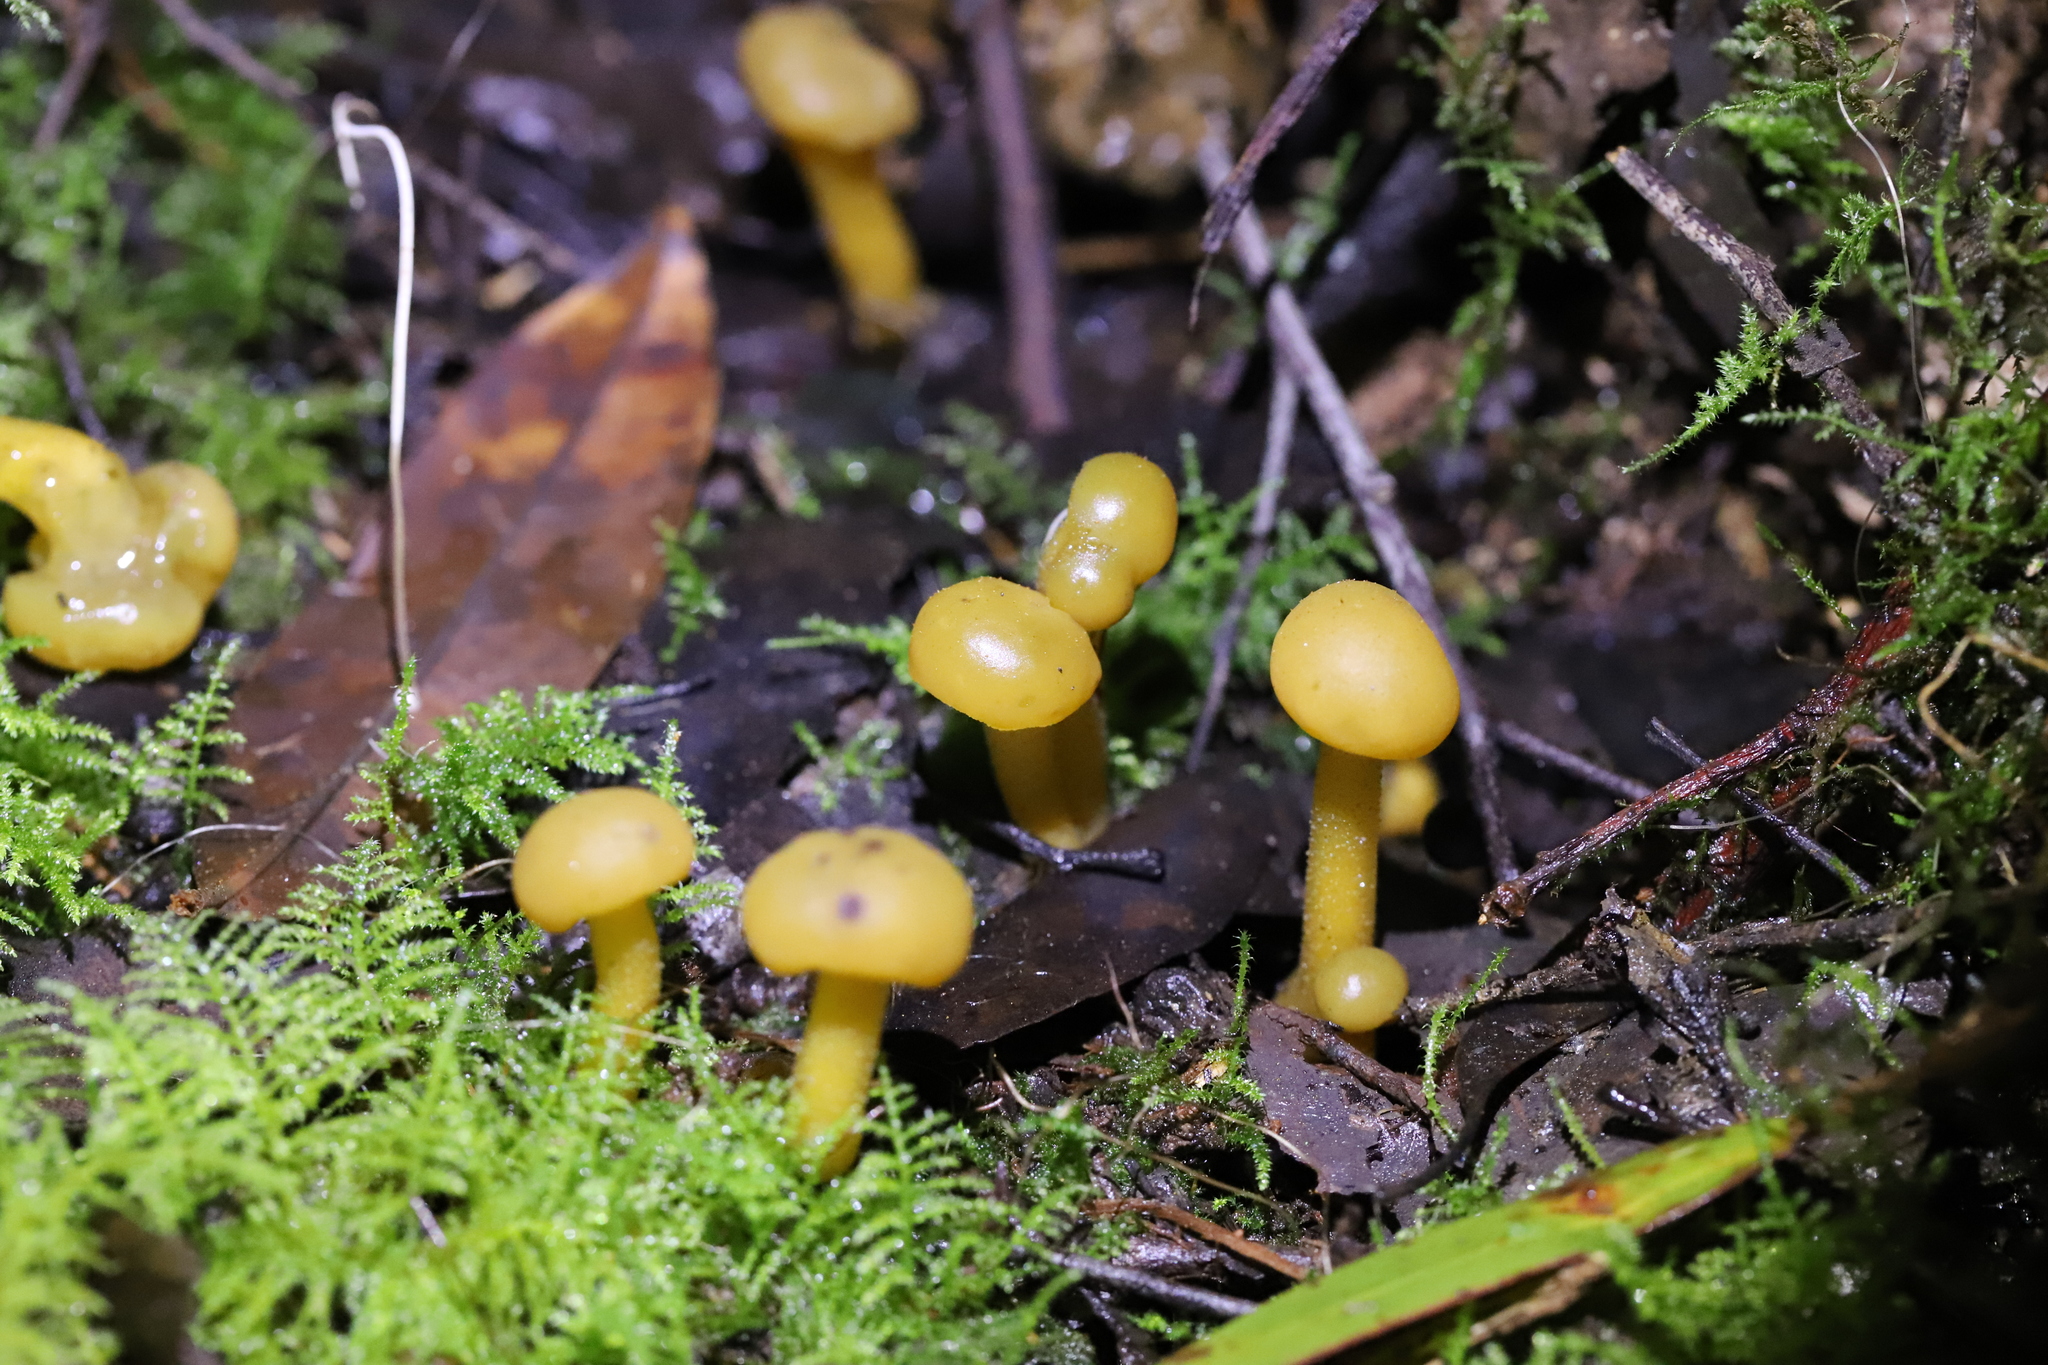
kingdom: Fungi
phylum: Ascomycota
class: Leotiomycetes
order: Leotiales
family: Leotiaceae
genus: Leotia
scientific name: Leotia lubrica
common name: Jellybaby
